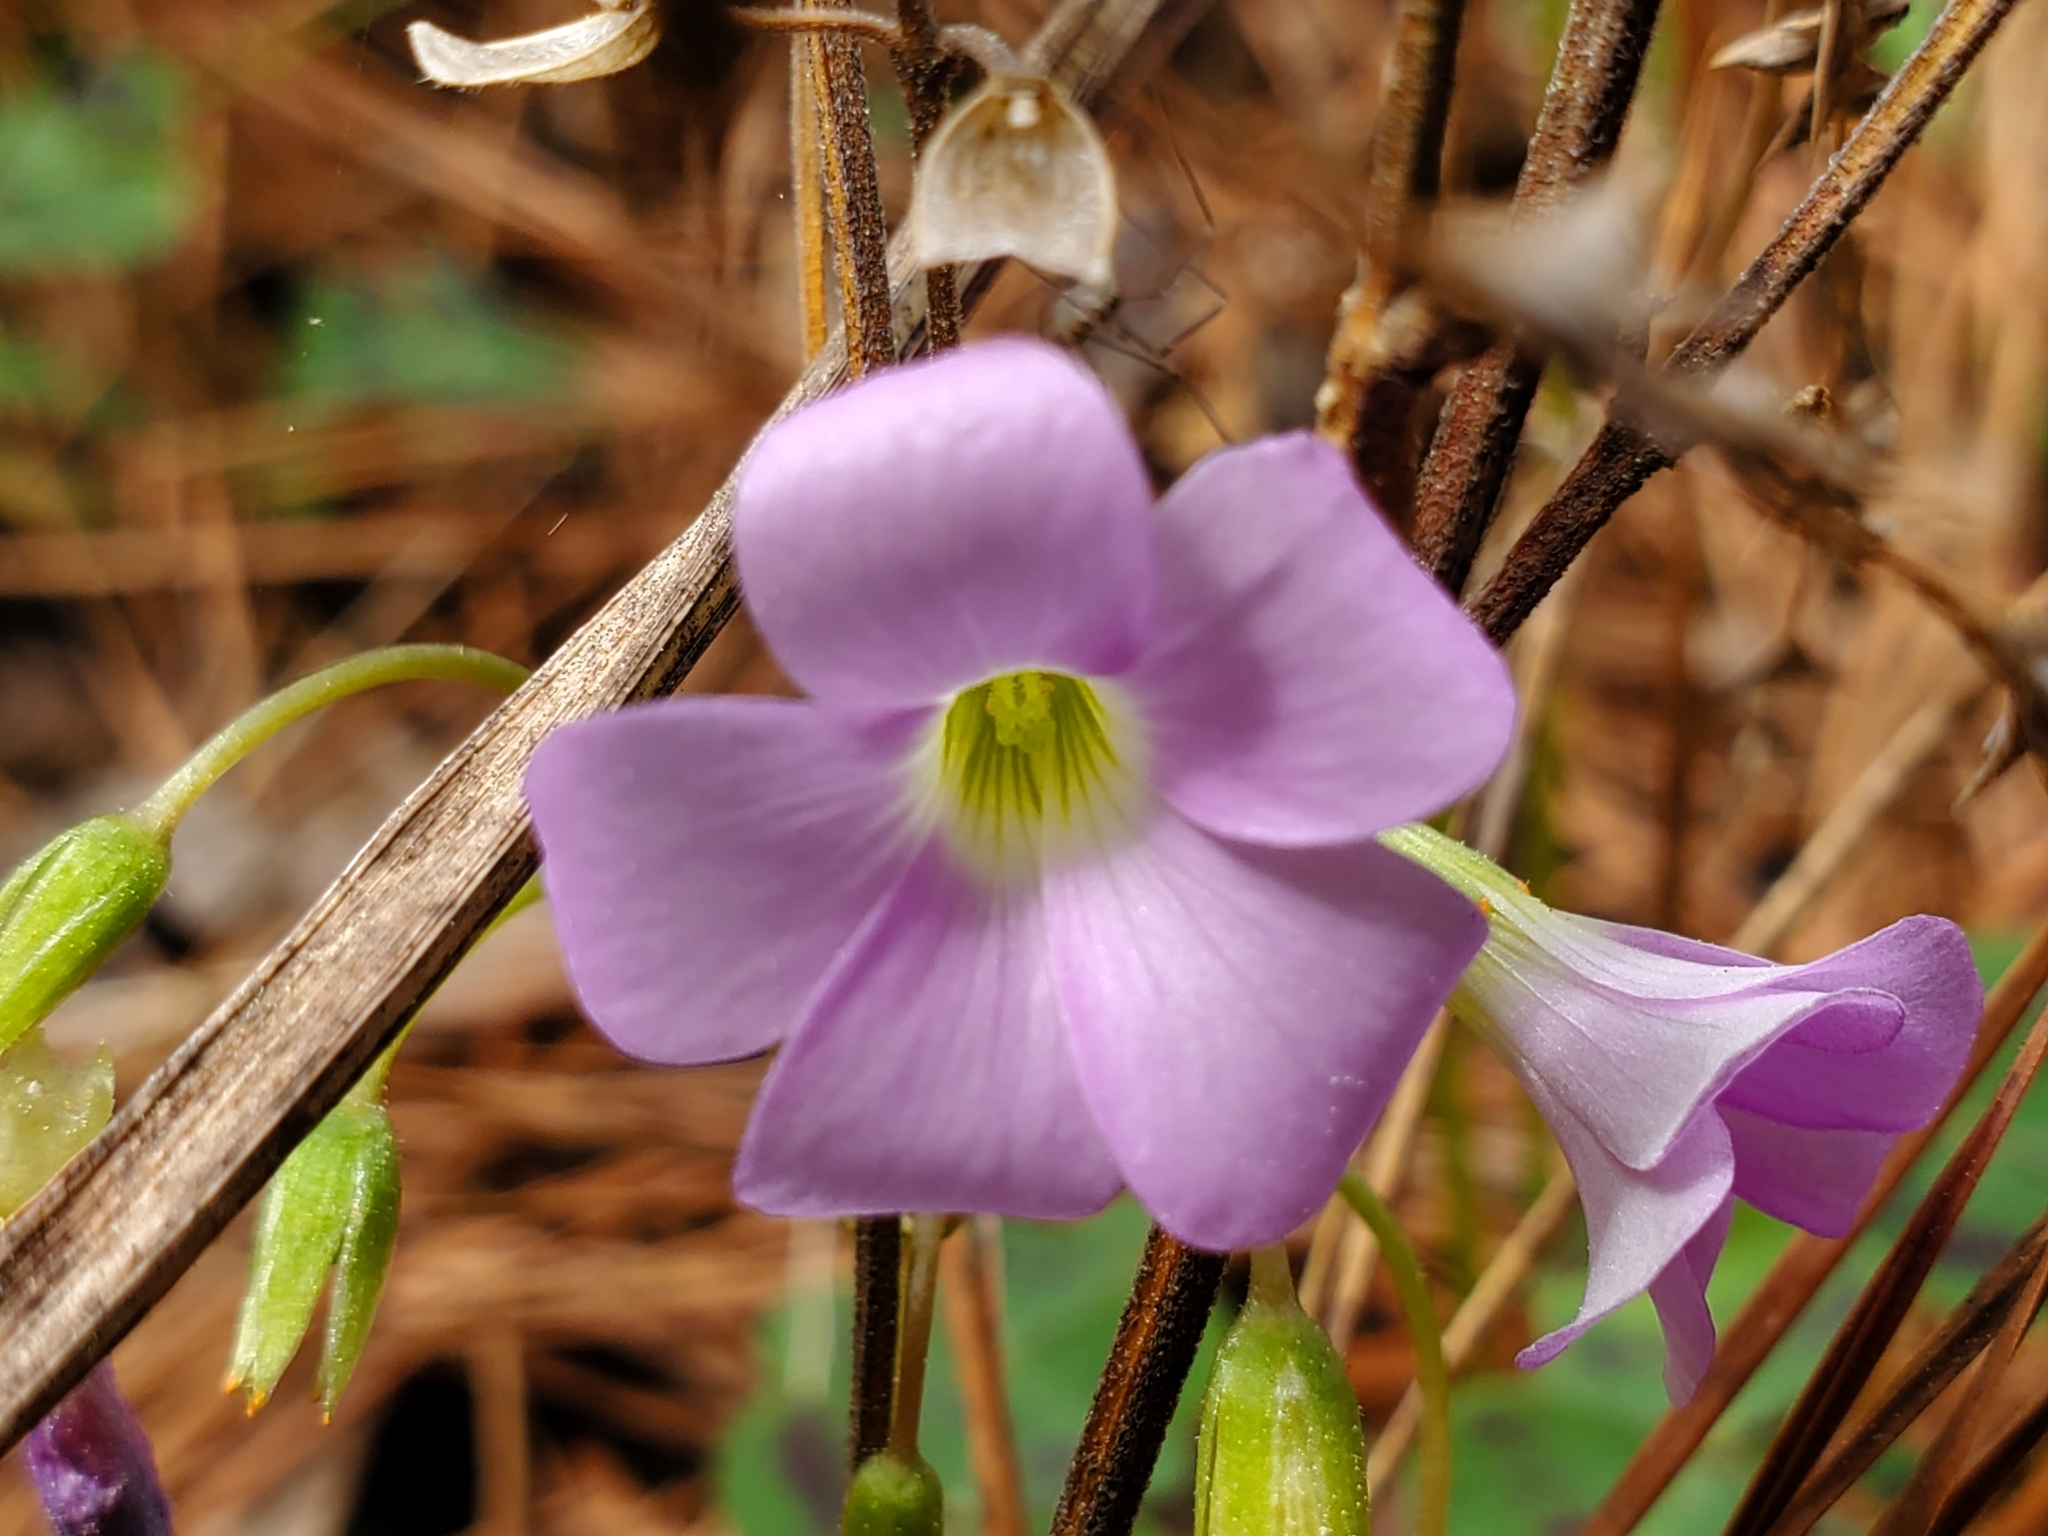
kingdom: Plantae
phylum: Tracheophyta
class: Magnoliopsida
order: Oxalidales
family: Oxalidaceae
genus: Oxalis
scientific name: Oxalis violacea
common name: Violet wood-sorrel
